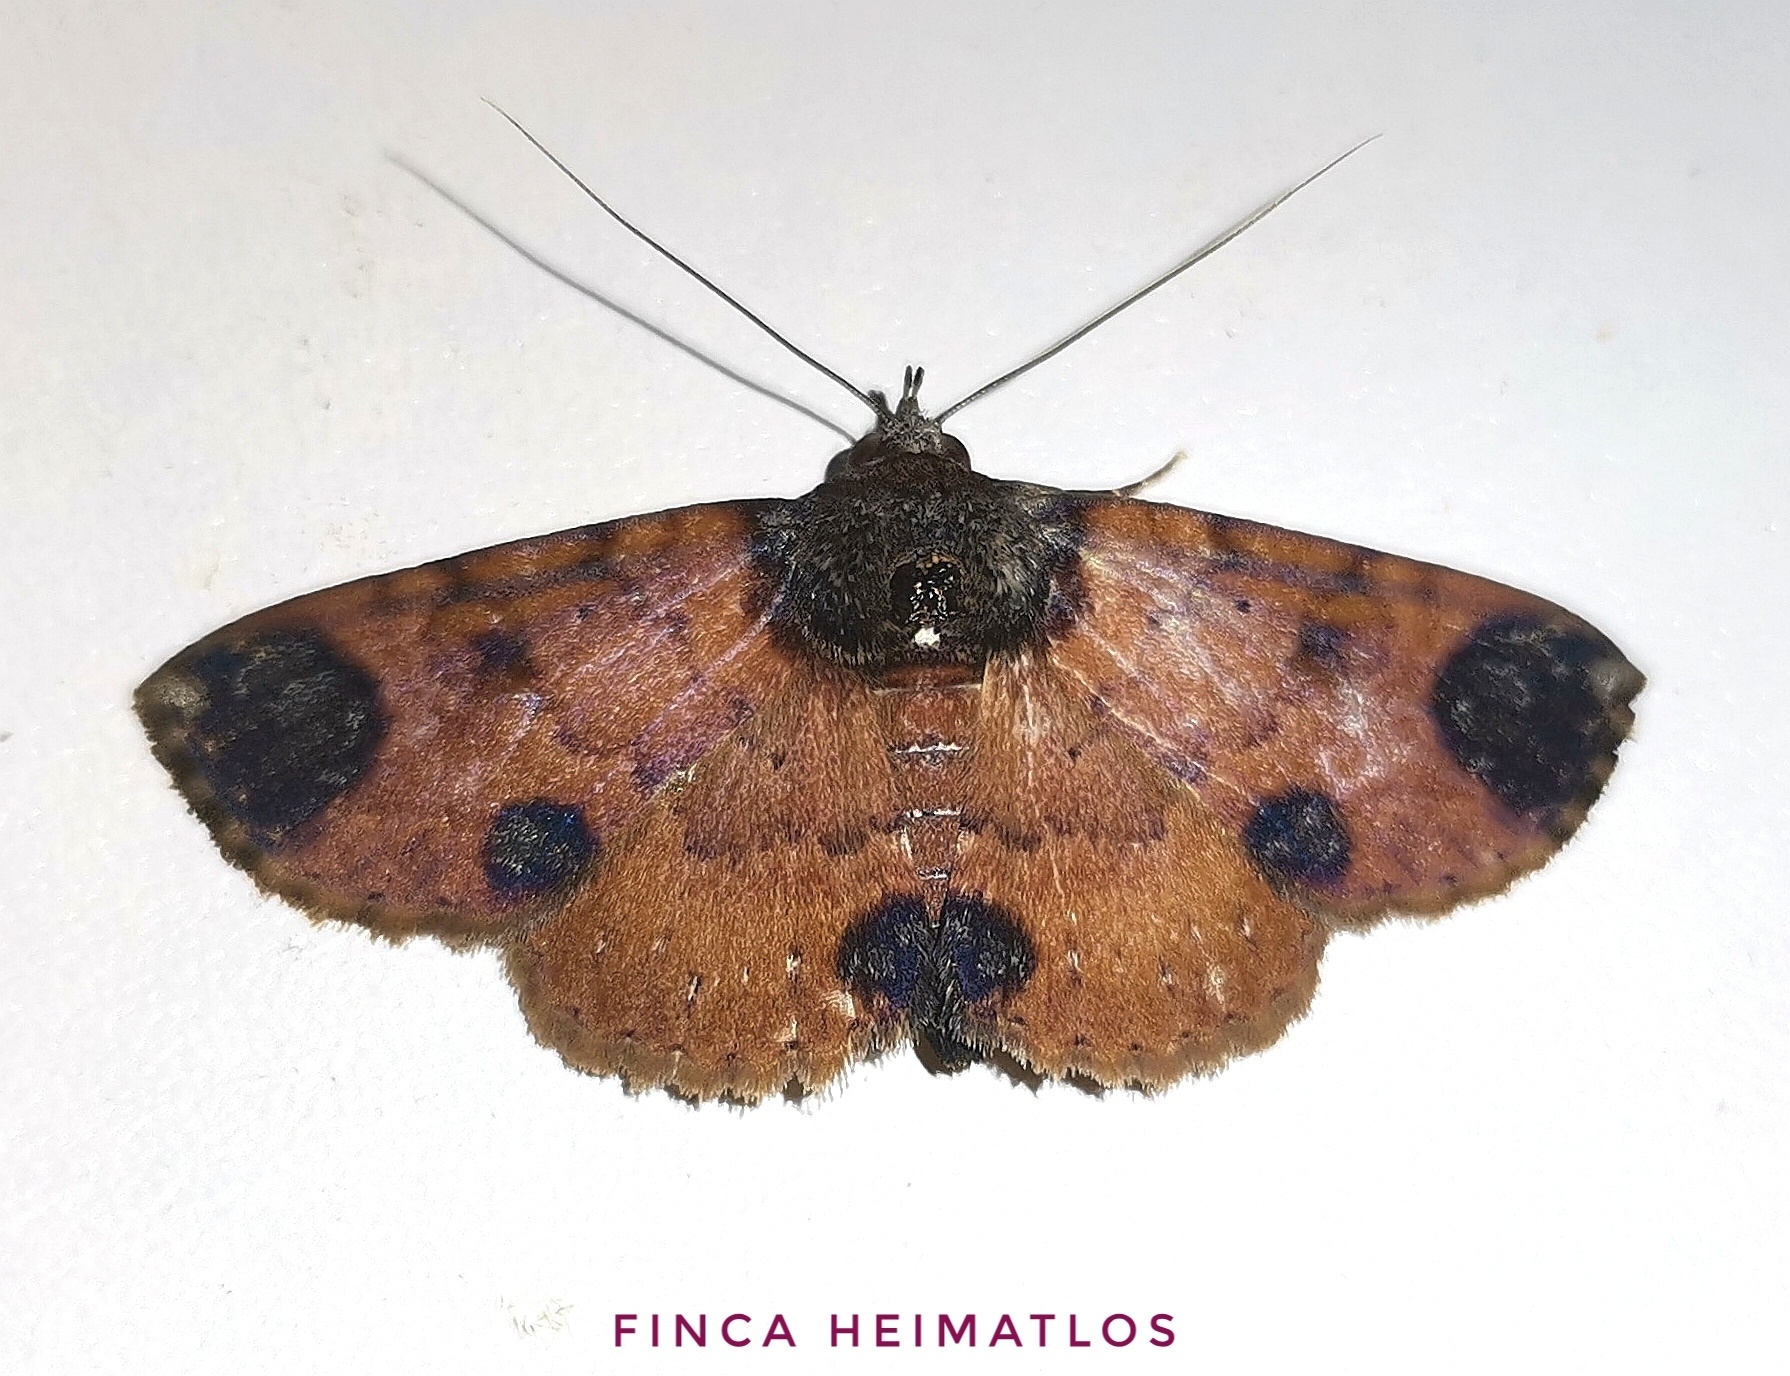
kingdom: Animalia
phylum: Arthropoda
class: Insecta
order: Lepidoptera
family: Erebidae
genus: Antiblemma
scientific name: Antiblemma hembrilla
